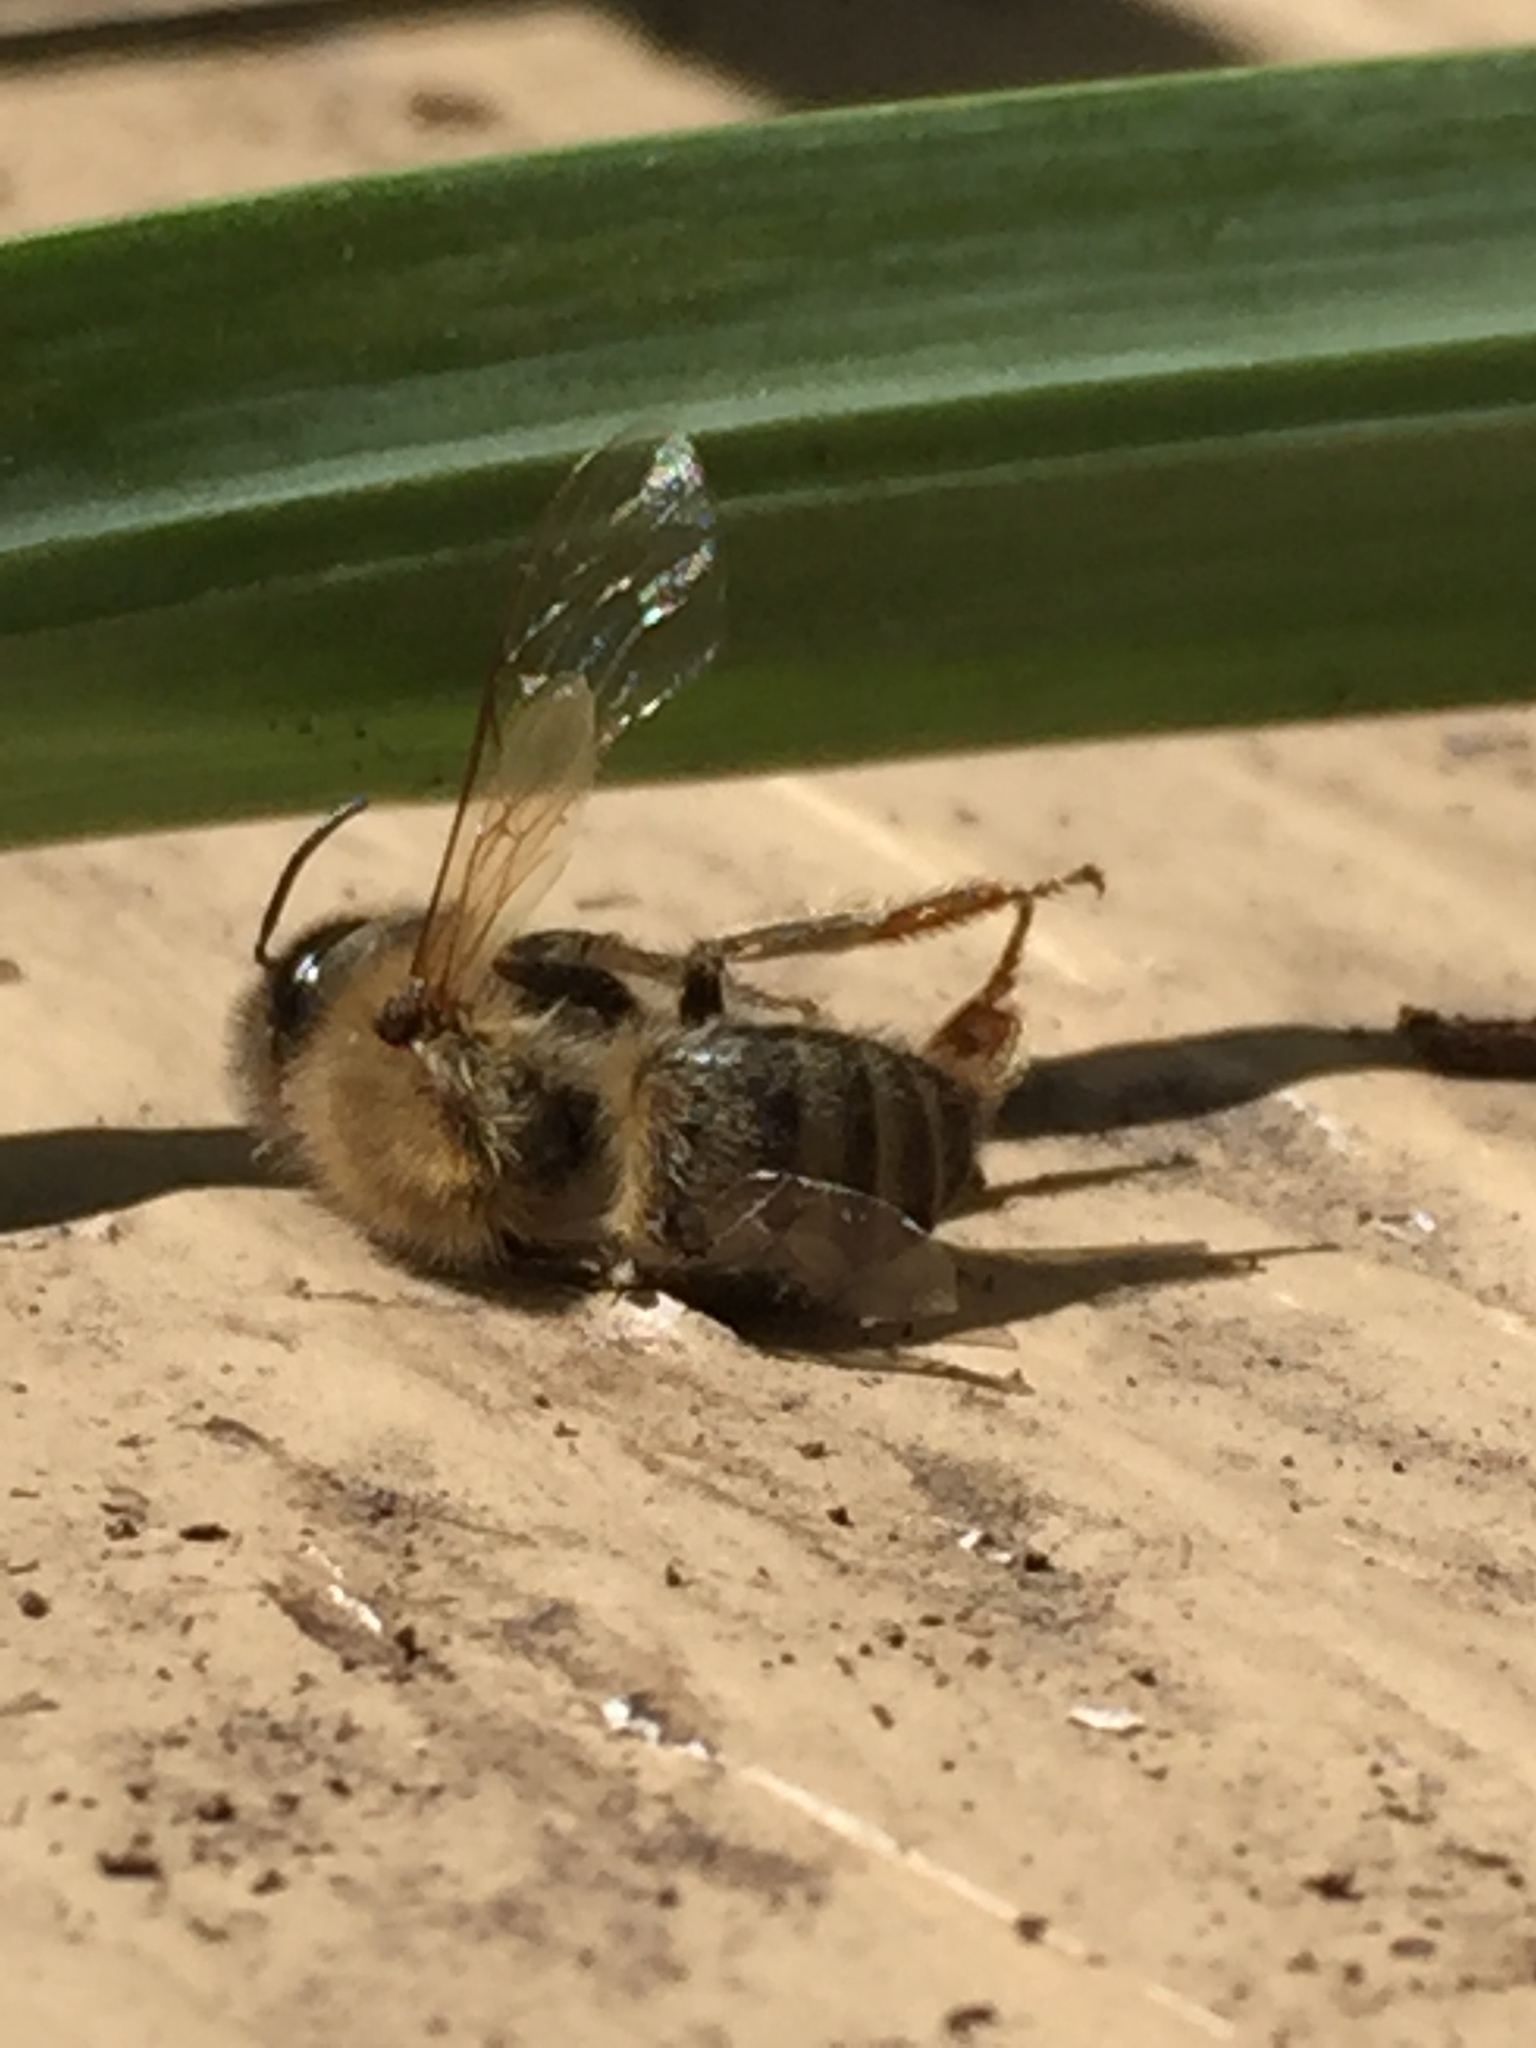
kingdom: Animalia
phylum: Arthropoda
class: Insecta
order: Hymenoptera
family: Apidae
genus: Apis
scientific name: Apis mellifera
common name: Honey bee
